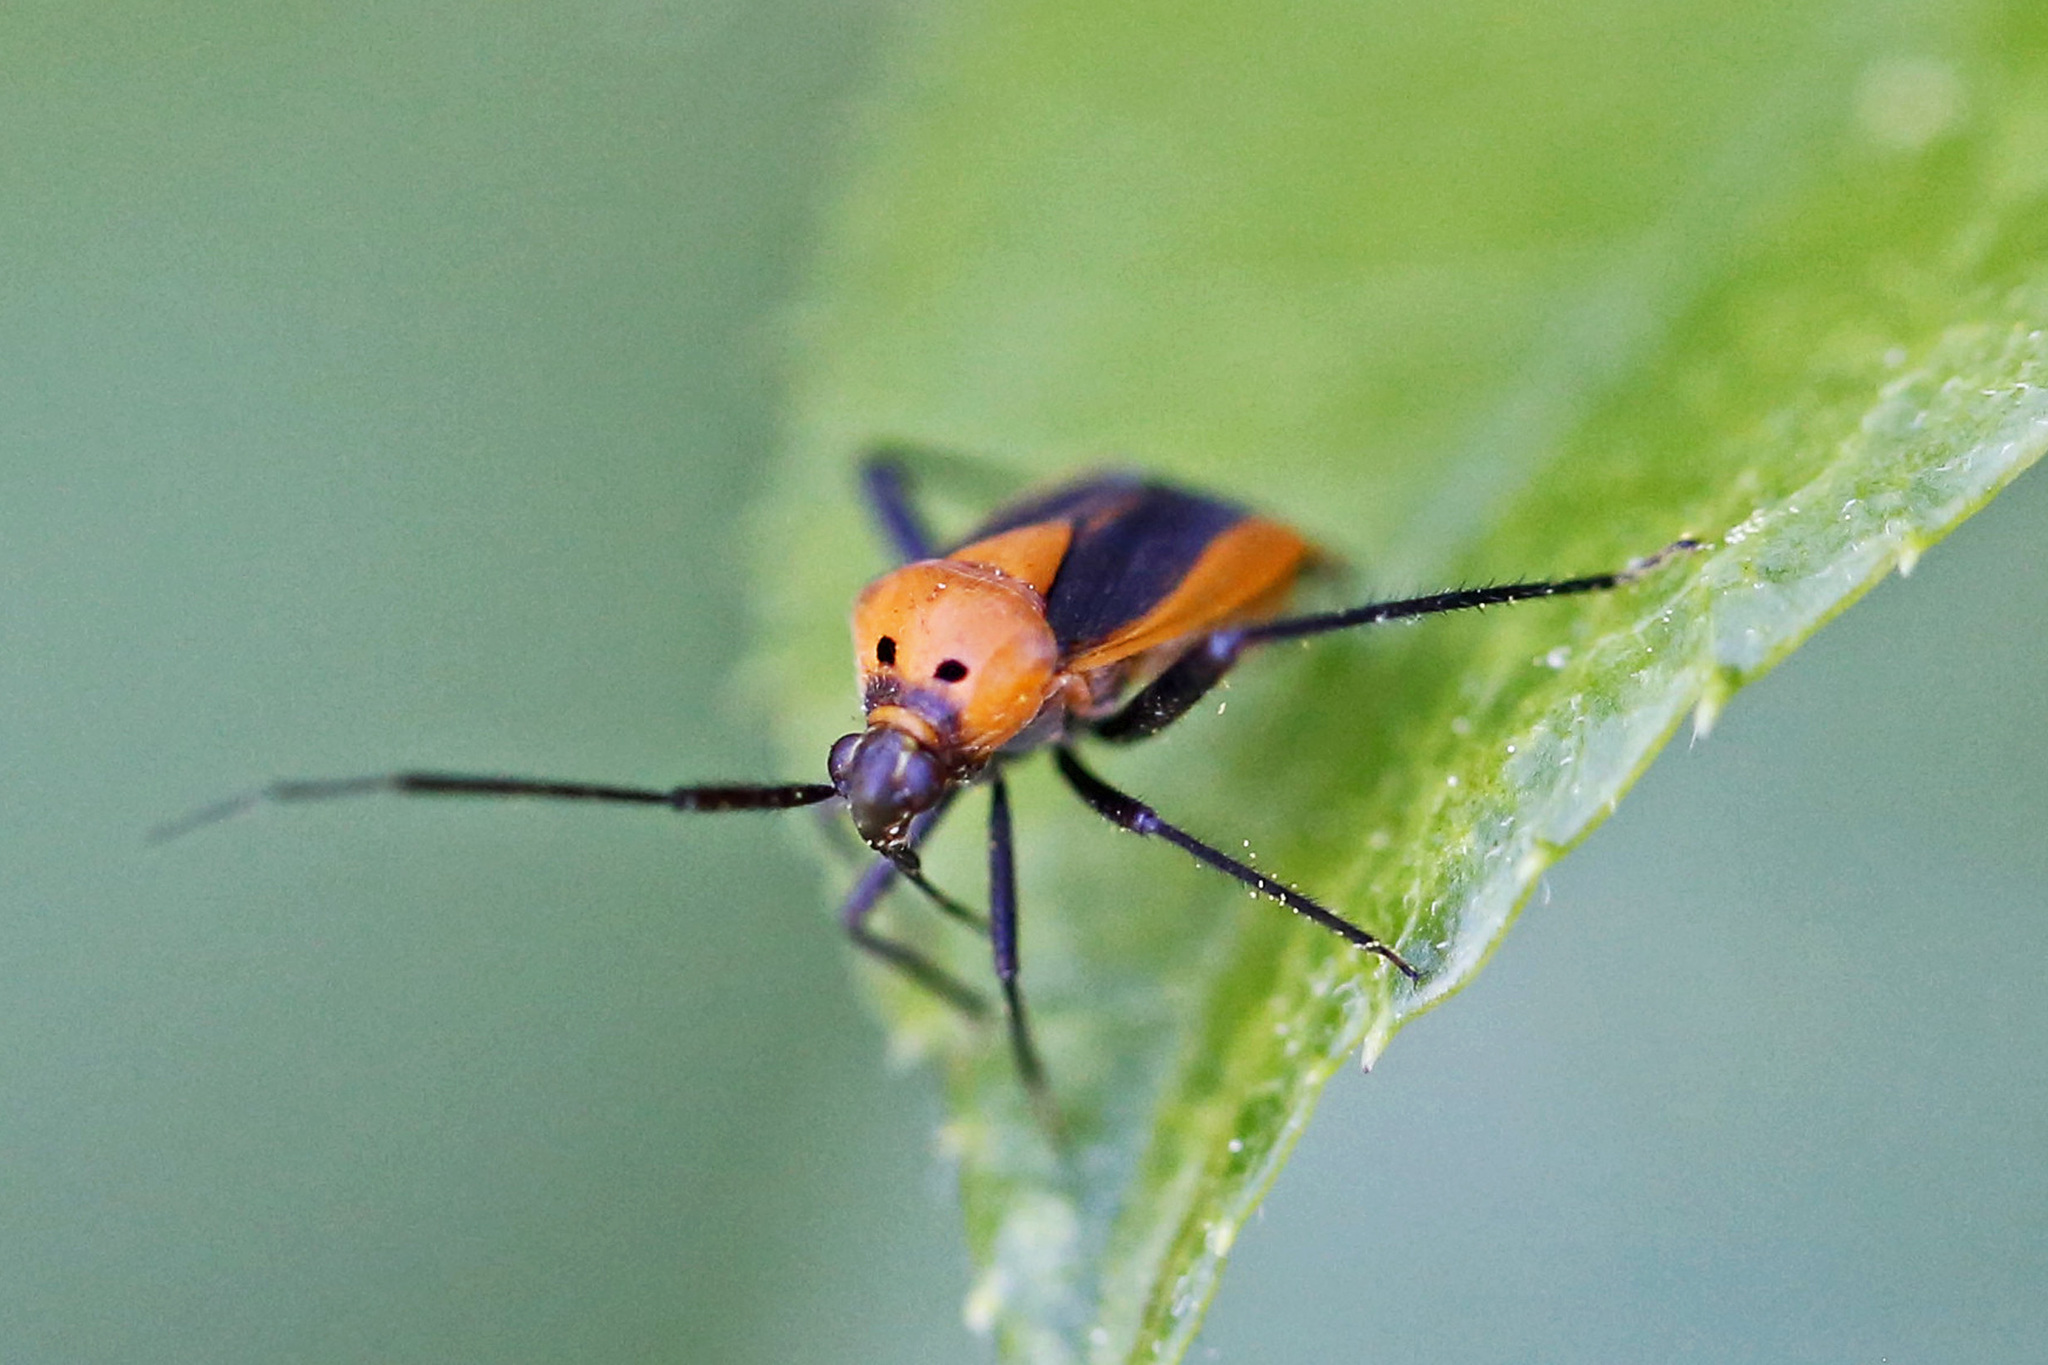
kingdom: Animalia
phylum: Arthropoda
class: Insecta
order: Hemiptera
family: Miridae
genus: Taedia
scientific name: Taedia scrupea
